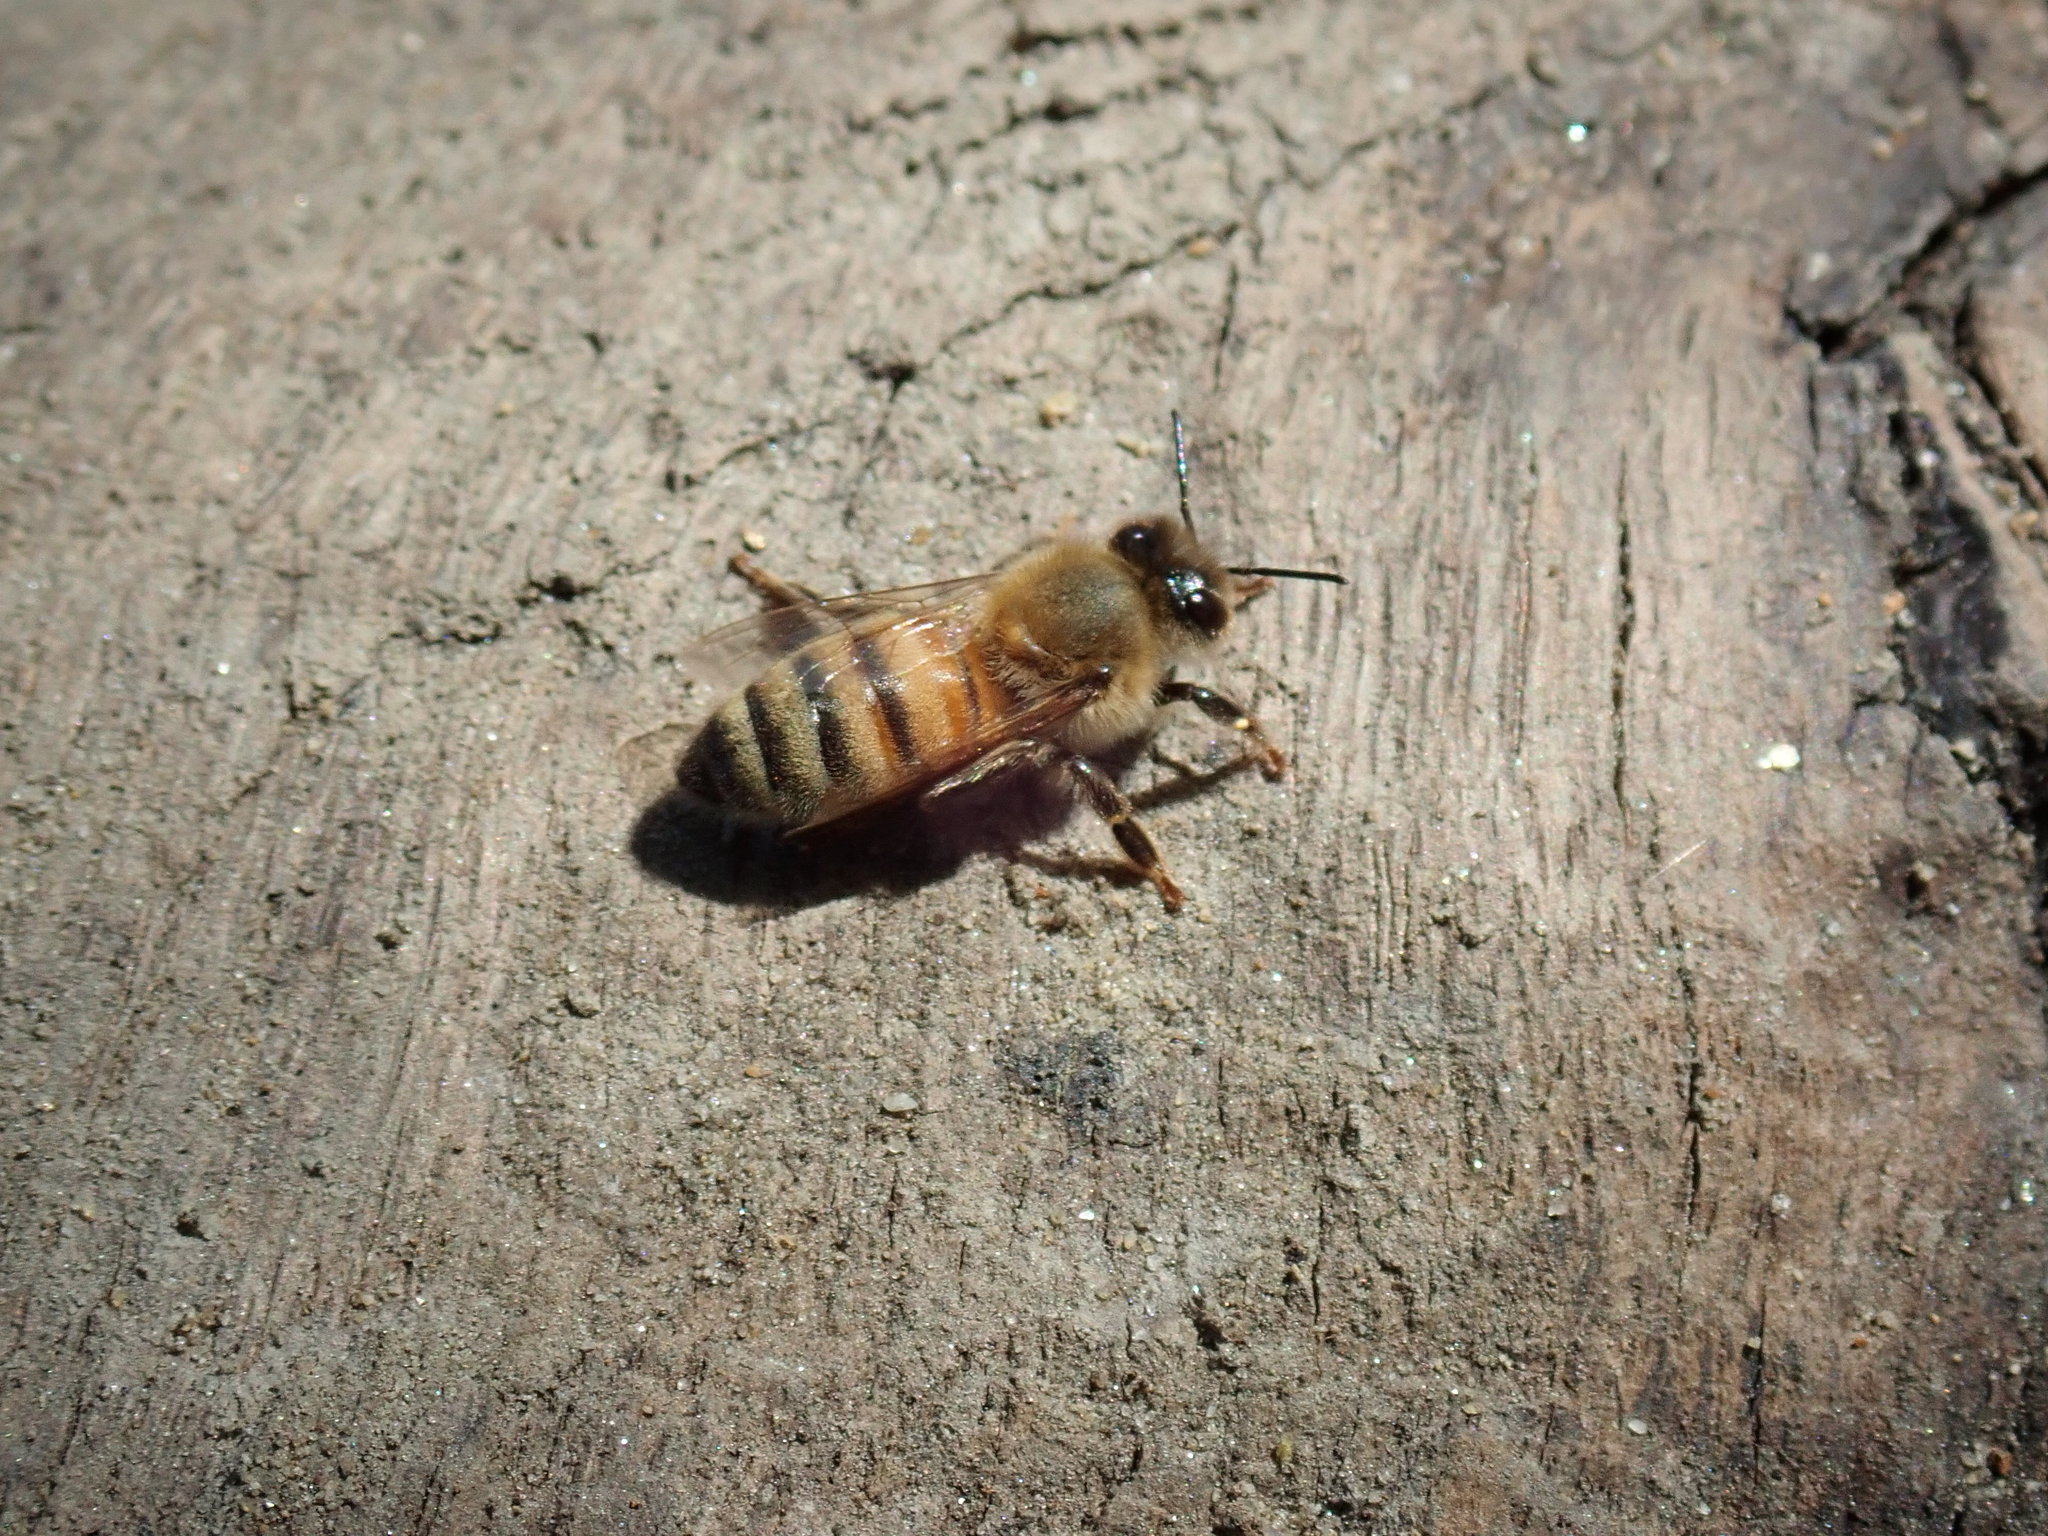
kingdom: Animalia
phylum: Arthropoda
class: Insecta
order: Hymenoptera
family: Apidae
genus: Apis
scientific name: Apis mellifera
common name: Honey bee
